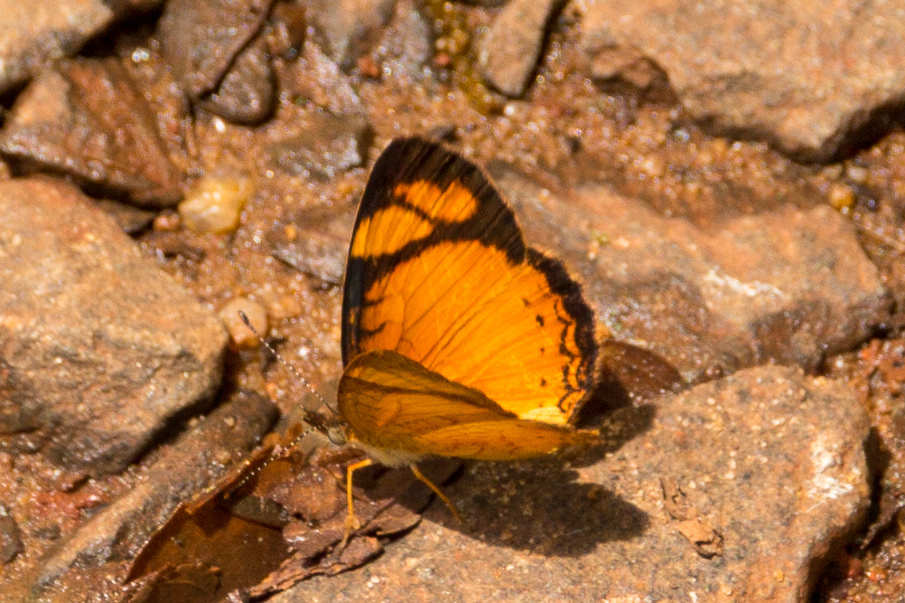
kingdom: Animalia
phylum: Arthropoda
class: Insecta
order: Lepidoptera
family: Nymphalidae
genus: Tegosa
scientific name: Tegosa claudina
